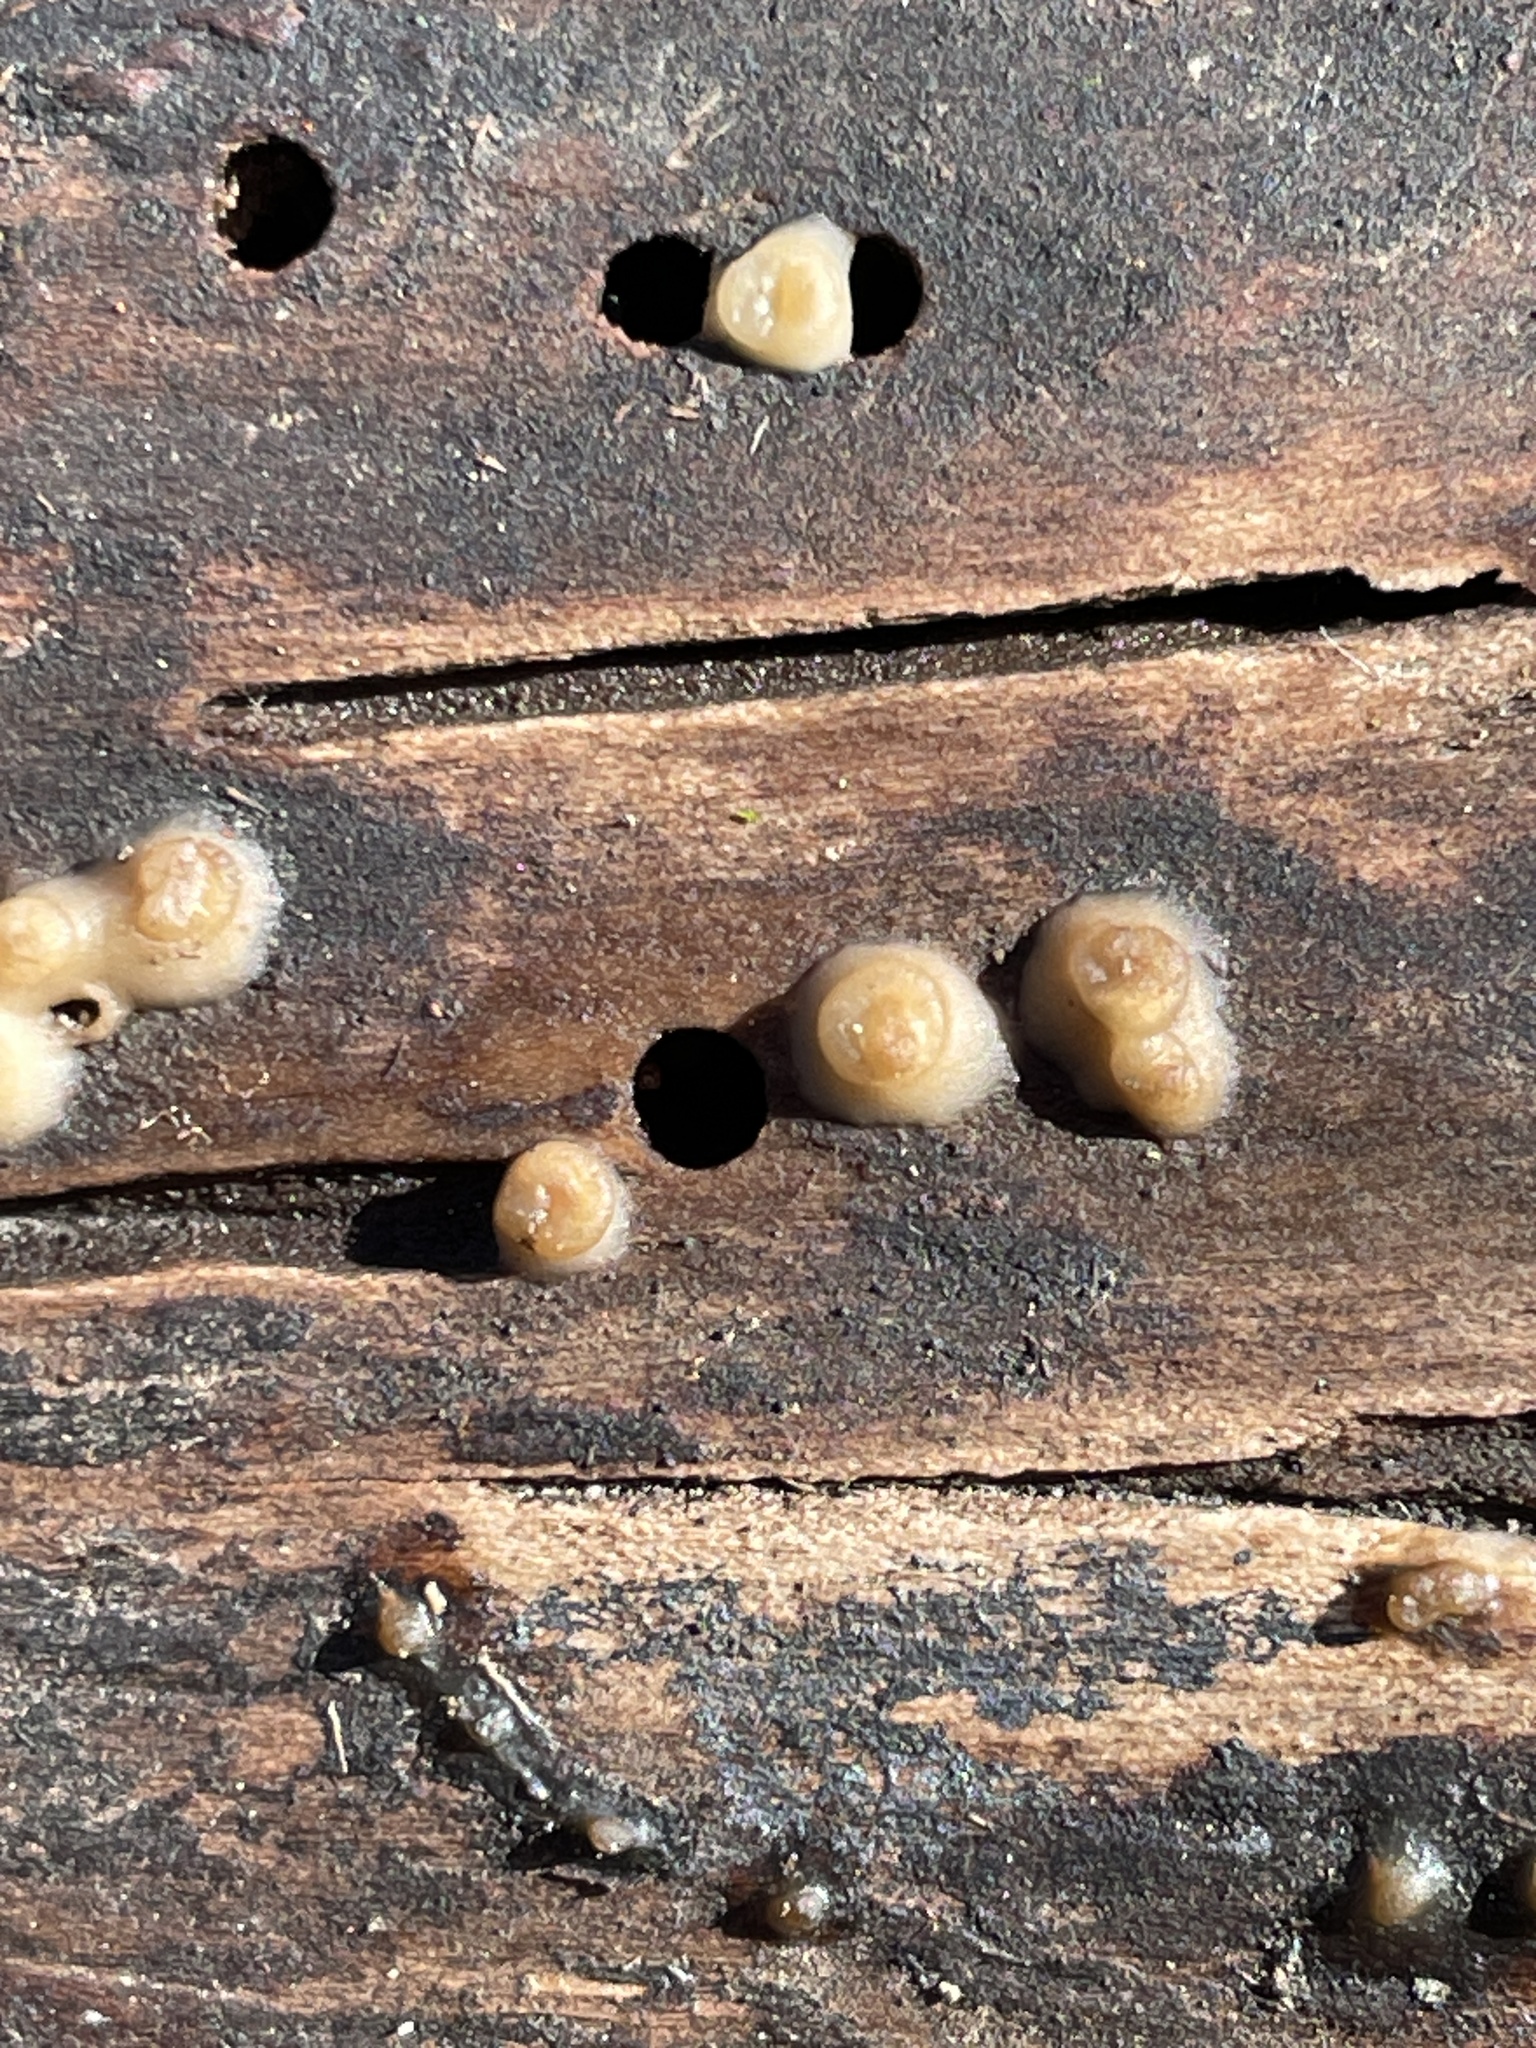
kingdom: Fungi
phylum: Basidiomycota
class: Atractiellomycetes
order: Atractiellales
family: Phleogenaceae
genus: Helicogloea
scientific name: Helicogloea compressa
